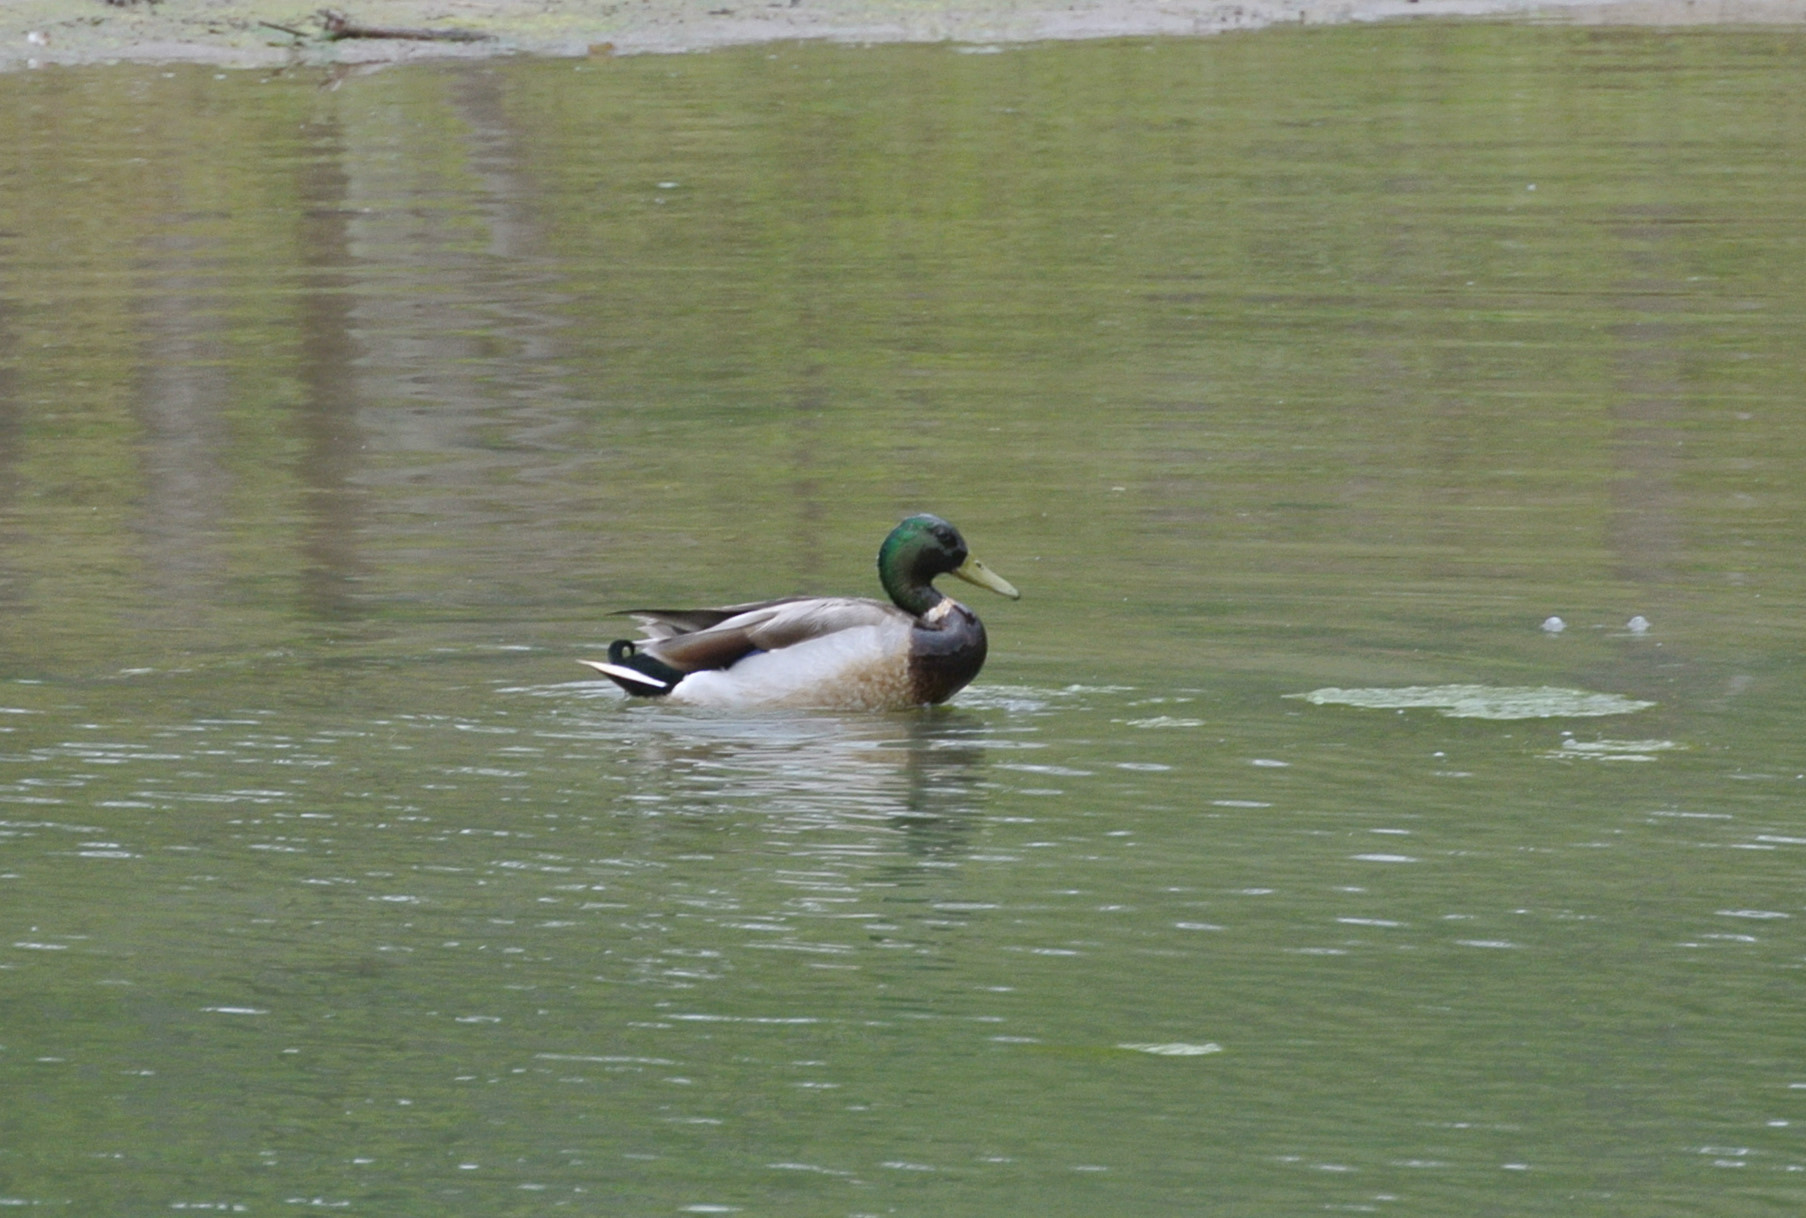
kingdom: Animalia
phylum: Chordata
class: Aves
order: Anseriformes
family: Anatidae
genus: Anas
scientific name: Anas platyrhynchos
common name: Mallard
